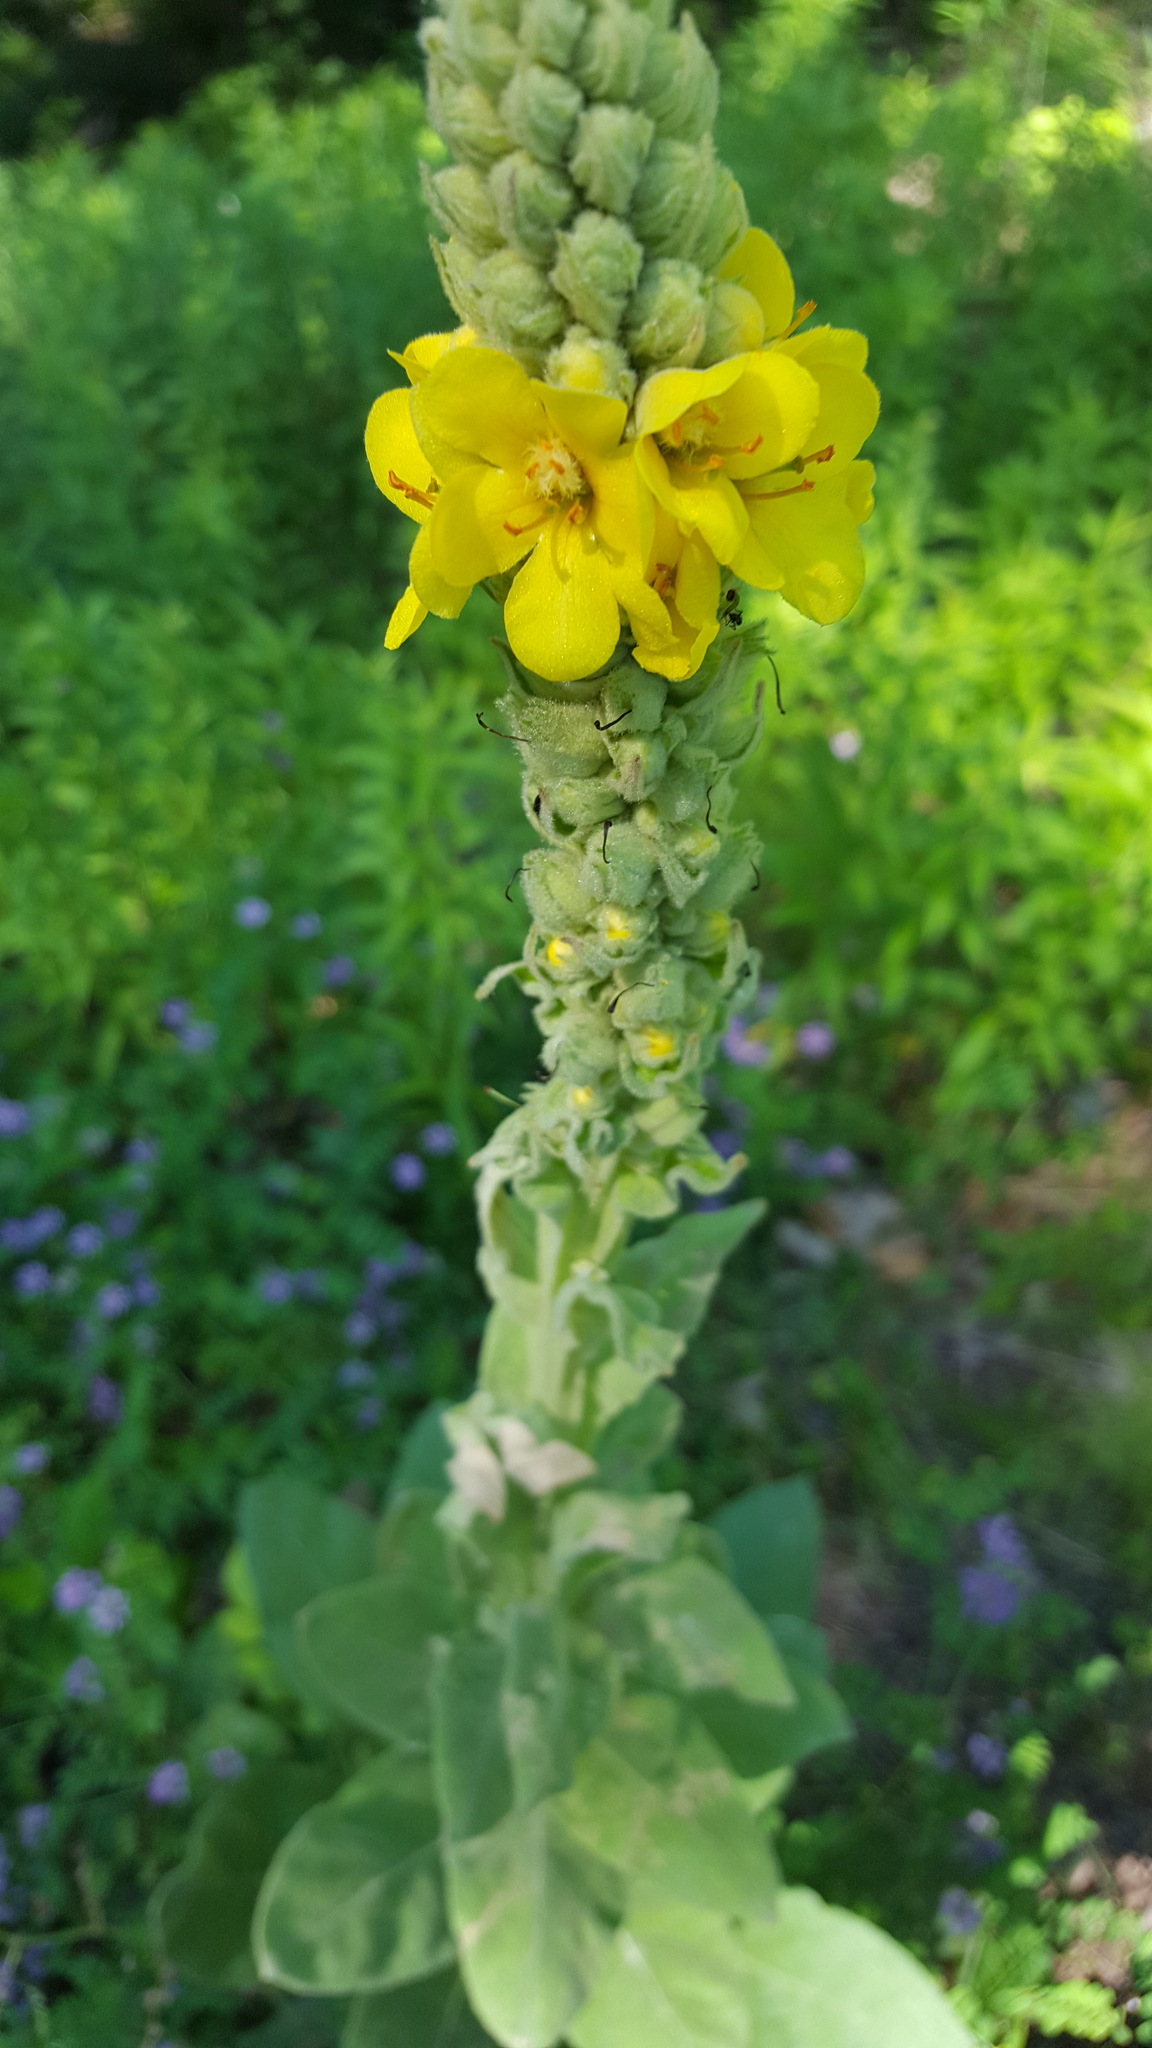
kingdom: Plantae
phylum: Tracheophyta
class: Magnoliopsida
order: Lamiales
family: Scrophulariaceae
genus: Verbascum
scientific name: Verbascum thapsus
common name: Common mullein
